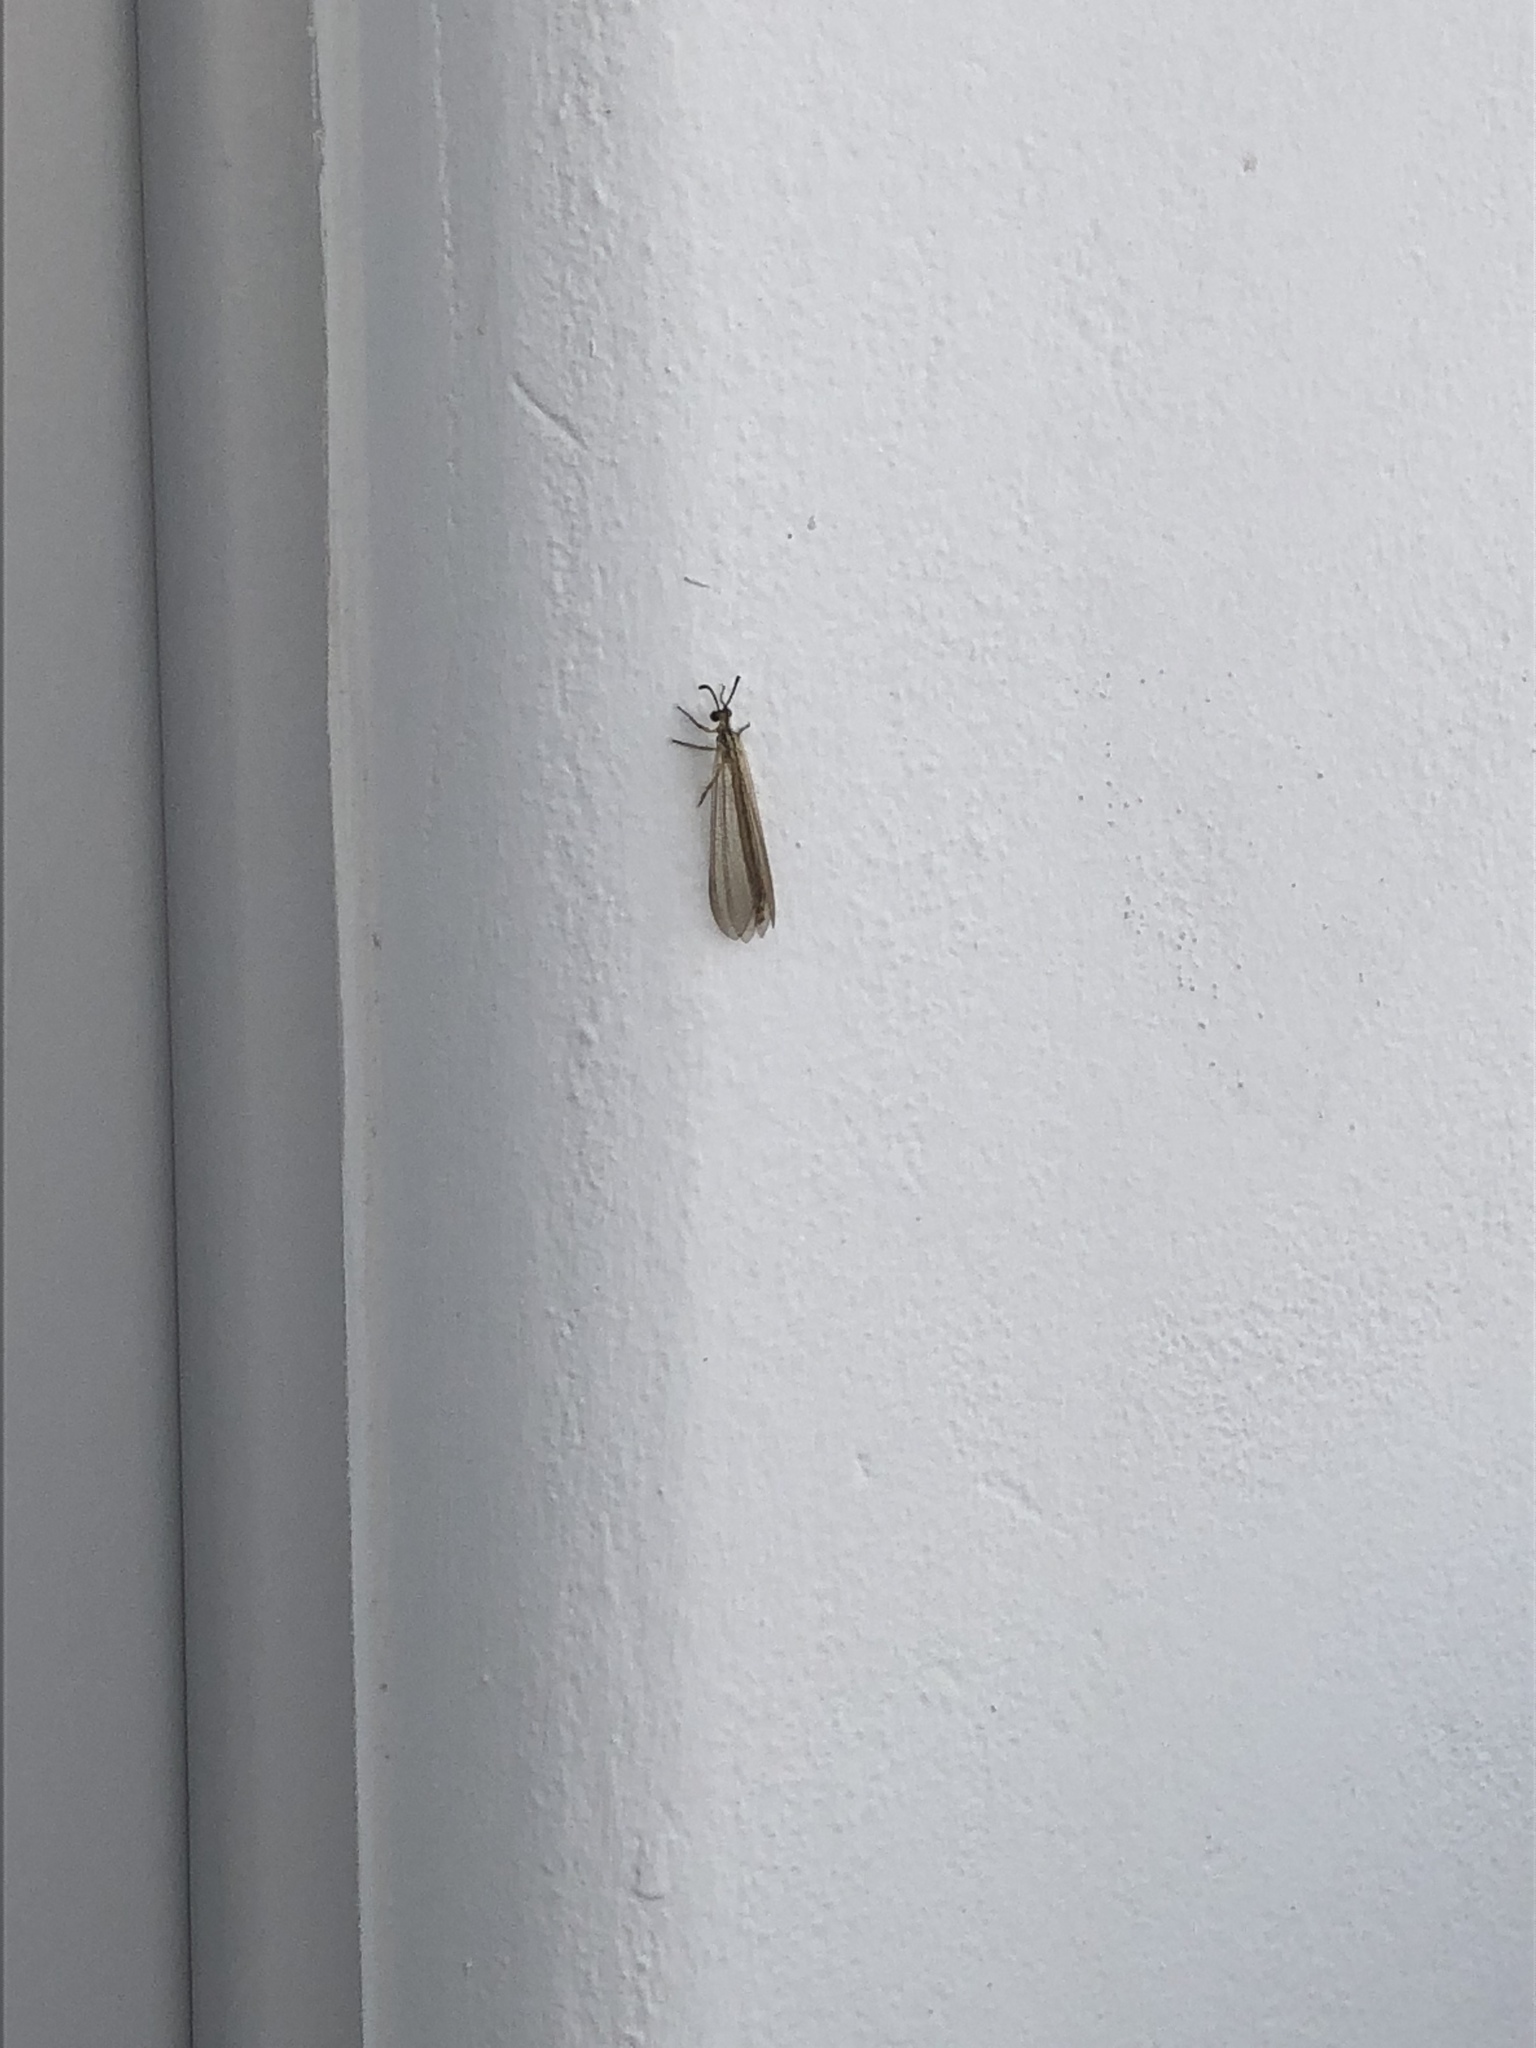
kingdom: Animalia
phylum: Arthropoda
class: Insecta
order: Neuroptera
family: Myrmeleontidae
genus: Myrmecaelurus
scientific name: Myrmecaelurus trigrammus
